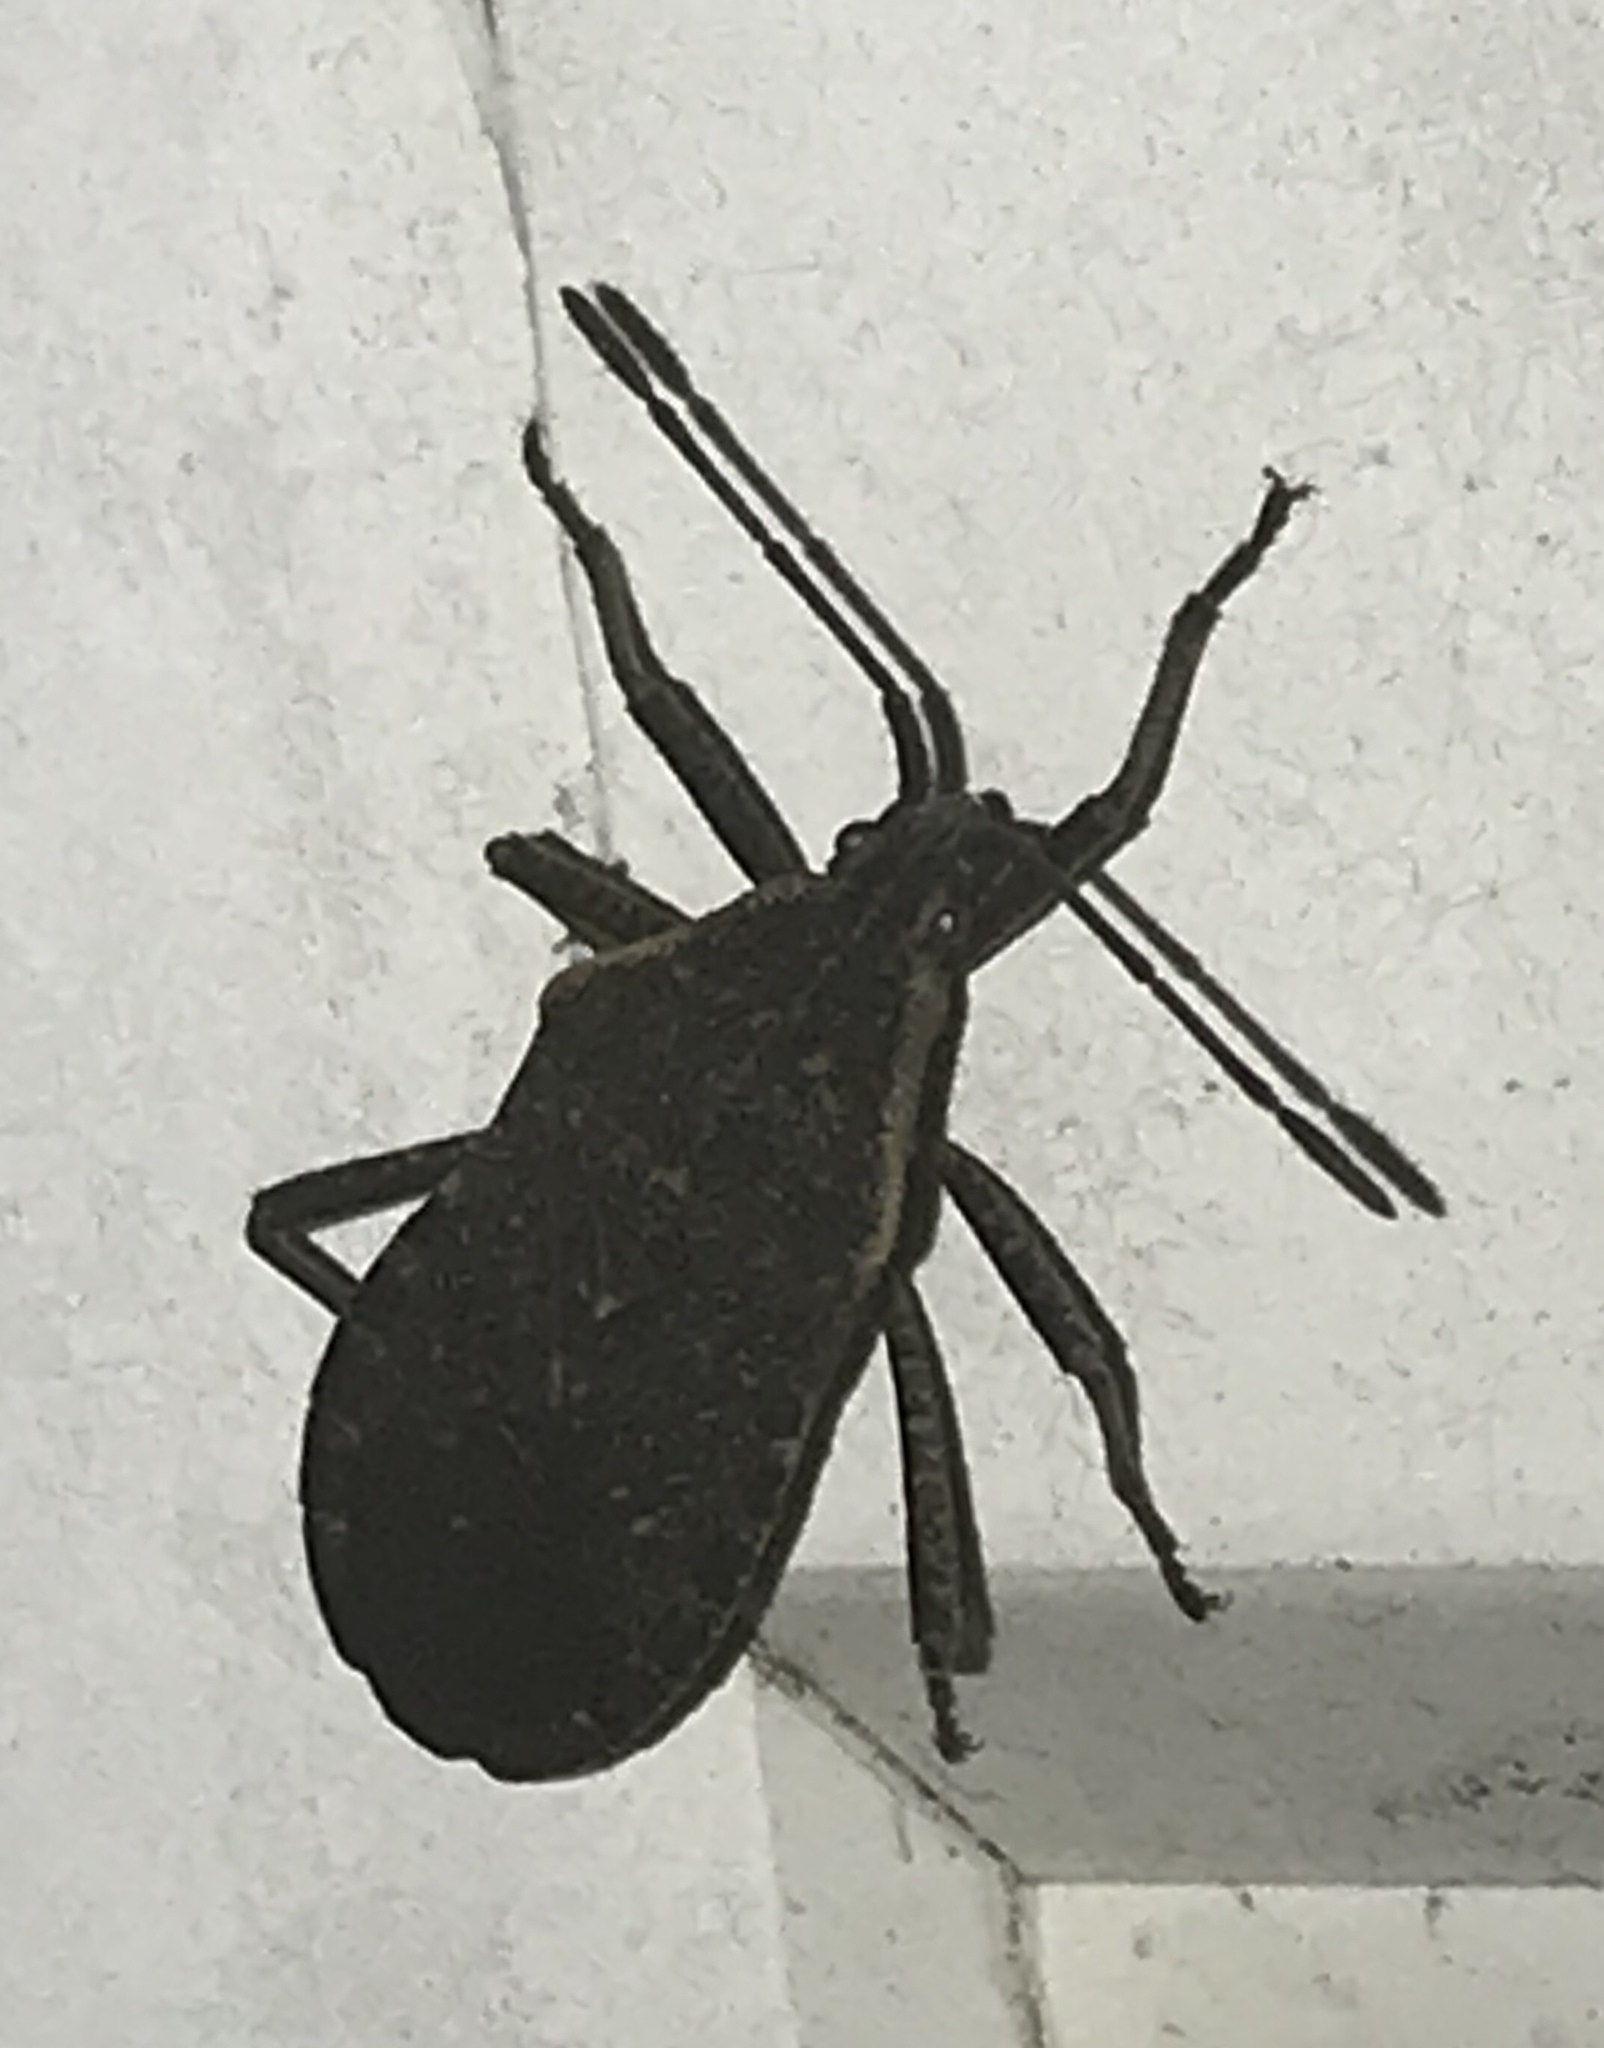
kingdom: Animalia
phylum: Arthropoda
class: Insecta
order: Hemiptera
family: Coreidae
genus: Anasa
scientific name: Anasa tristis
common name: Squash bug
